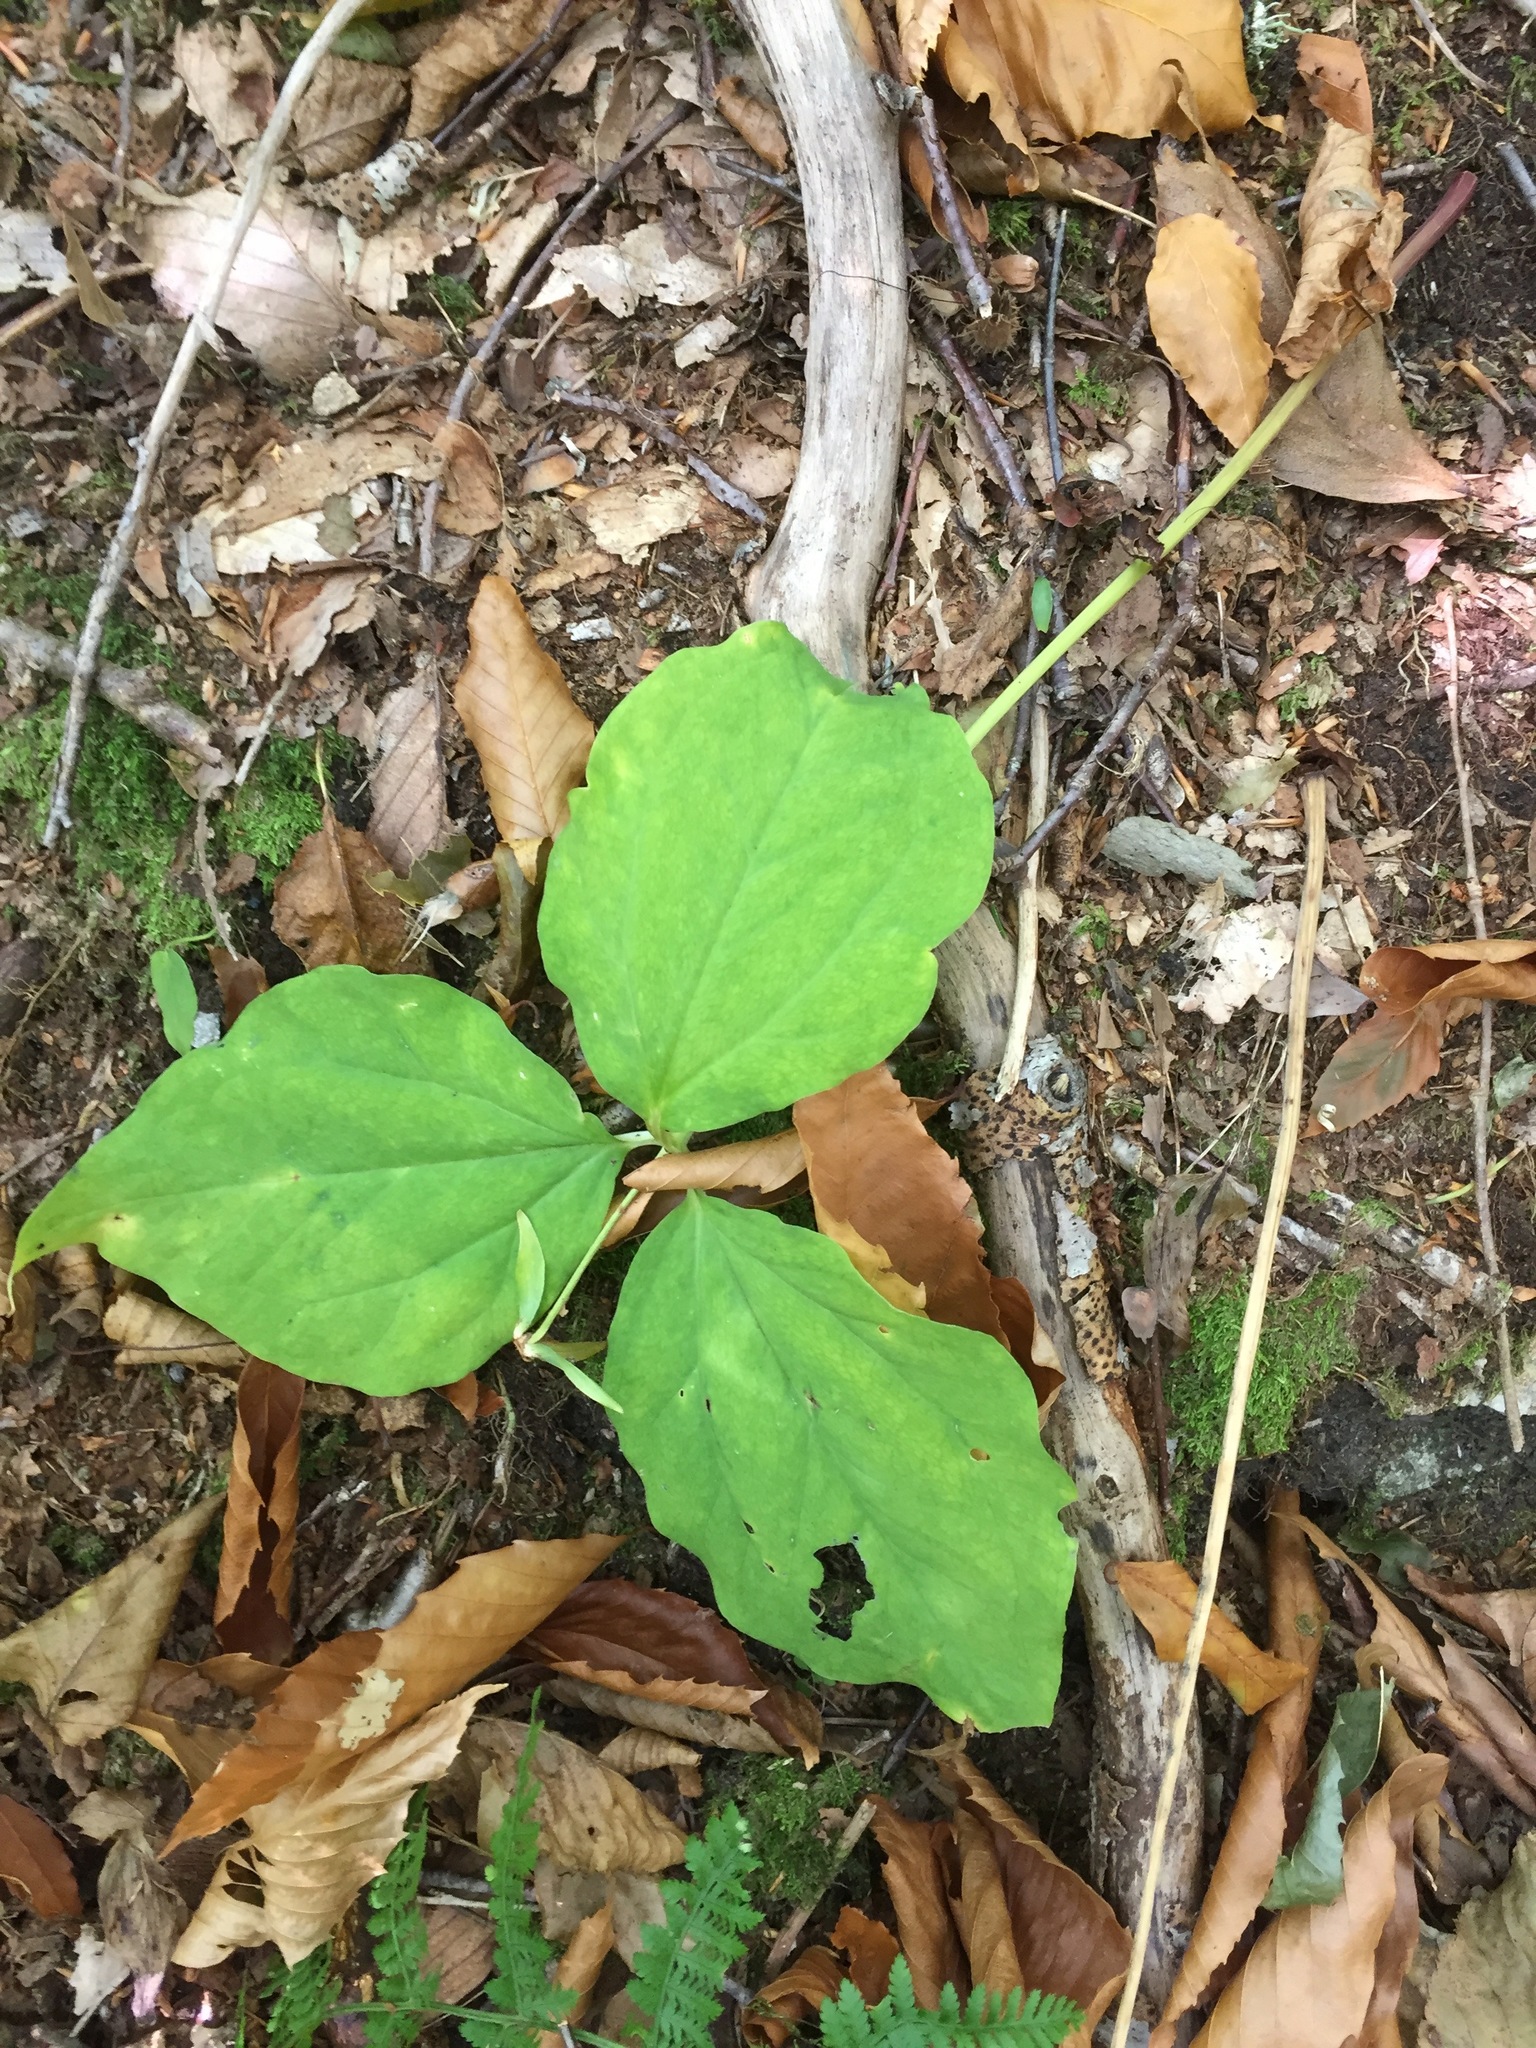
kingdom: Plantae
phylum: Tracheophyta
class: Liliopsida
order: Liliales
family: Melanthiaceae
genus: Trillium
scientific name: Trillium undulatum
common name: Paint trillium
